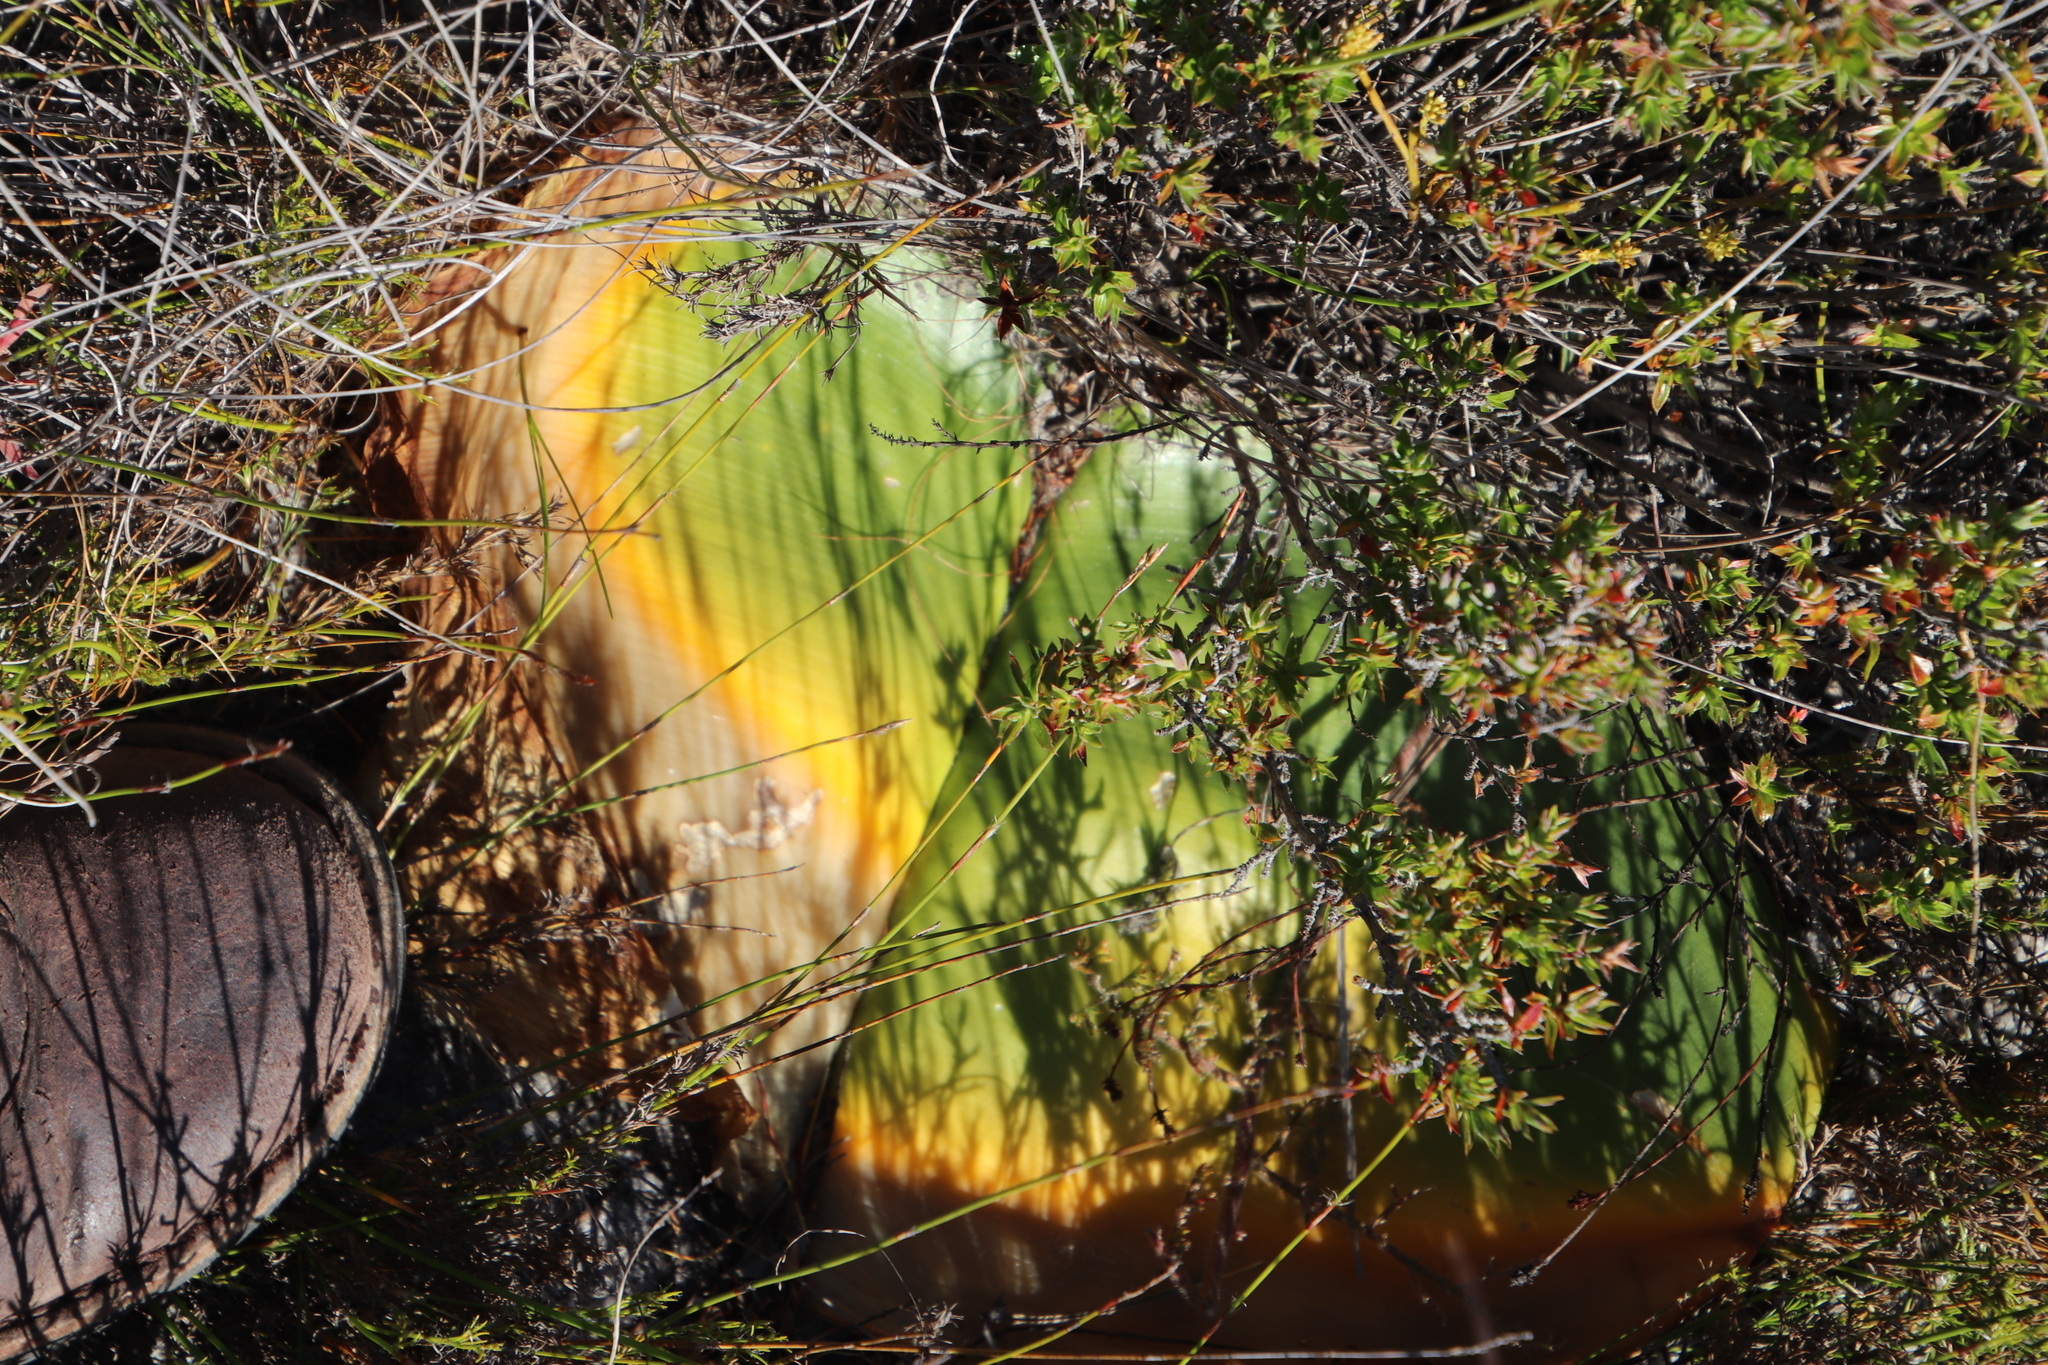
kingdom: Plantae
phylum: Tracheophyta
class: Liliopsida
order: Asparagales
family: Amaryllidaceae
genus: Haemanthus
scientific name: Haemanthus sanguineus
